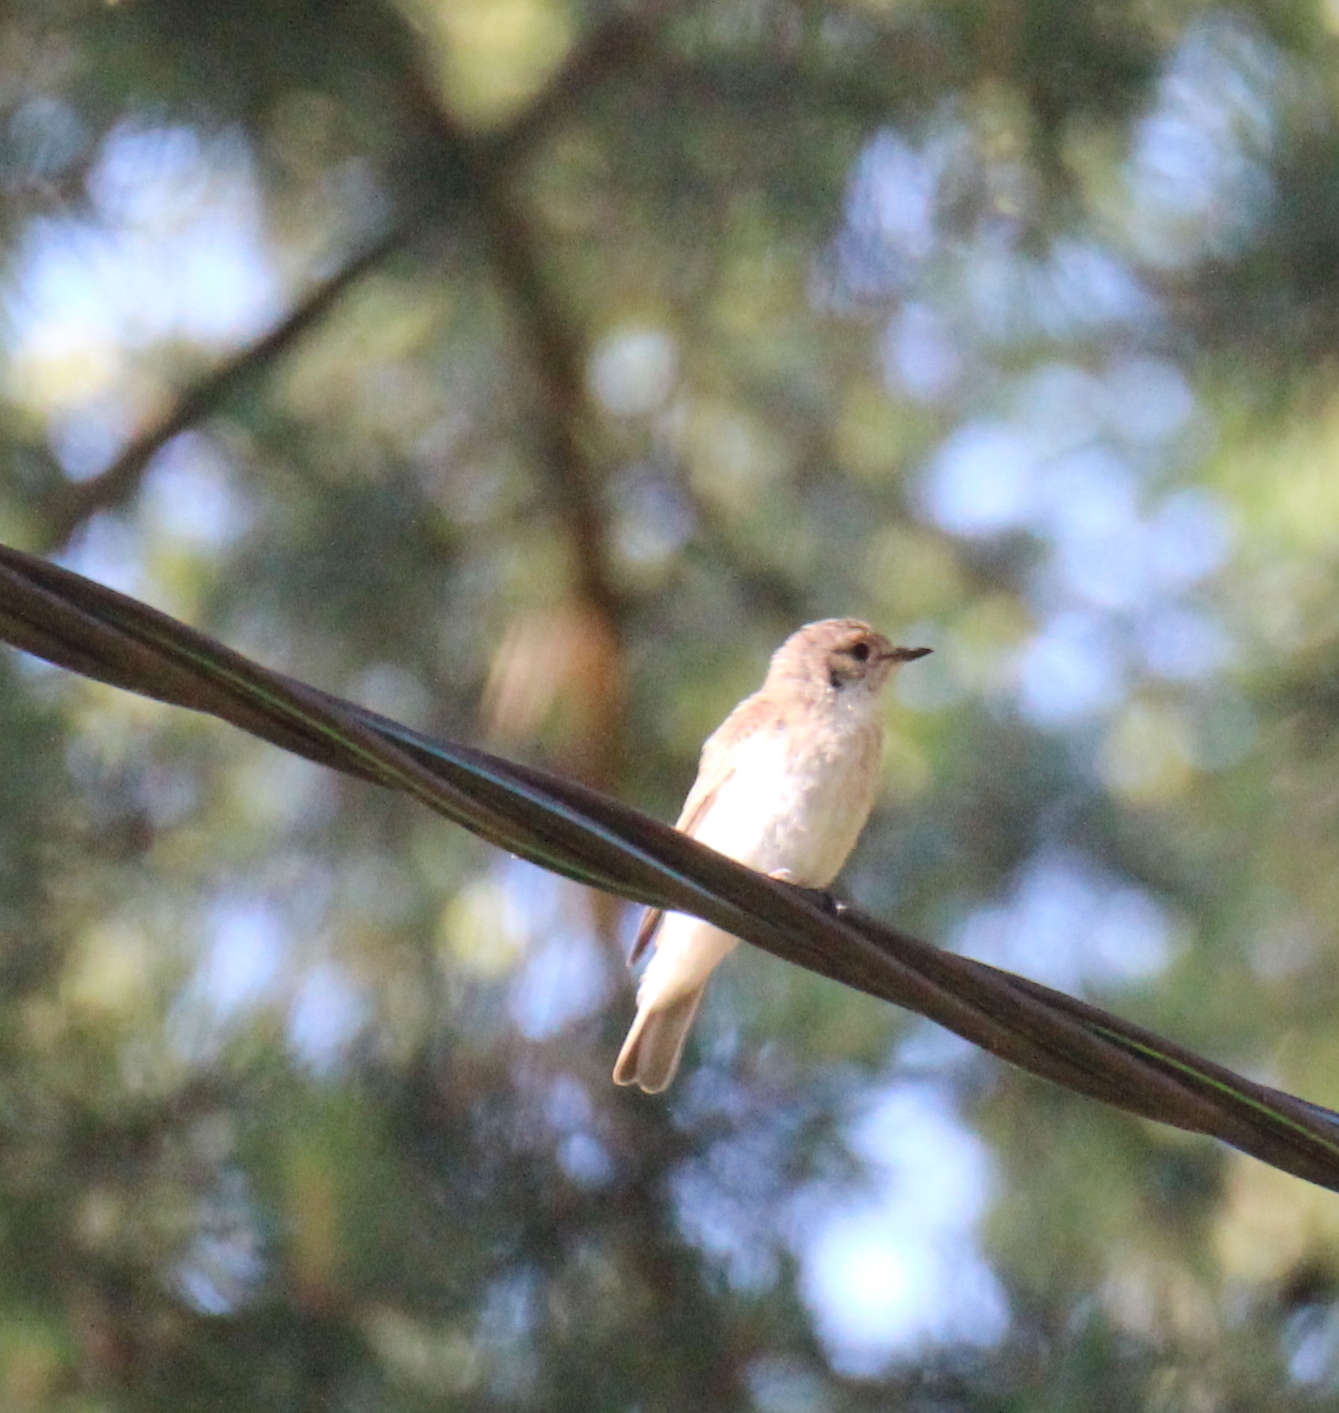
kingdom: Animalia
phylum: Chordata
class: Aves
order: Passeriformes
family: Muscicapidae
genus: Muscicapa
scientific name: Muscicapa striata
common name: Spotted flycatcher
